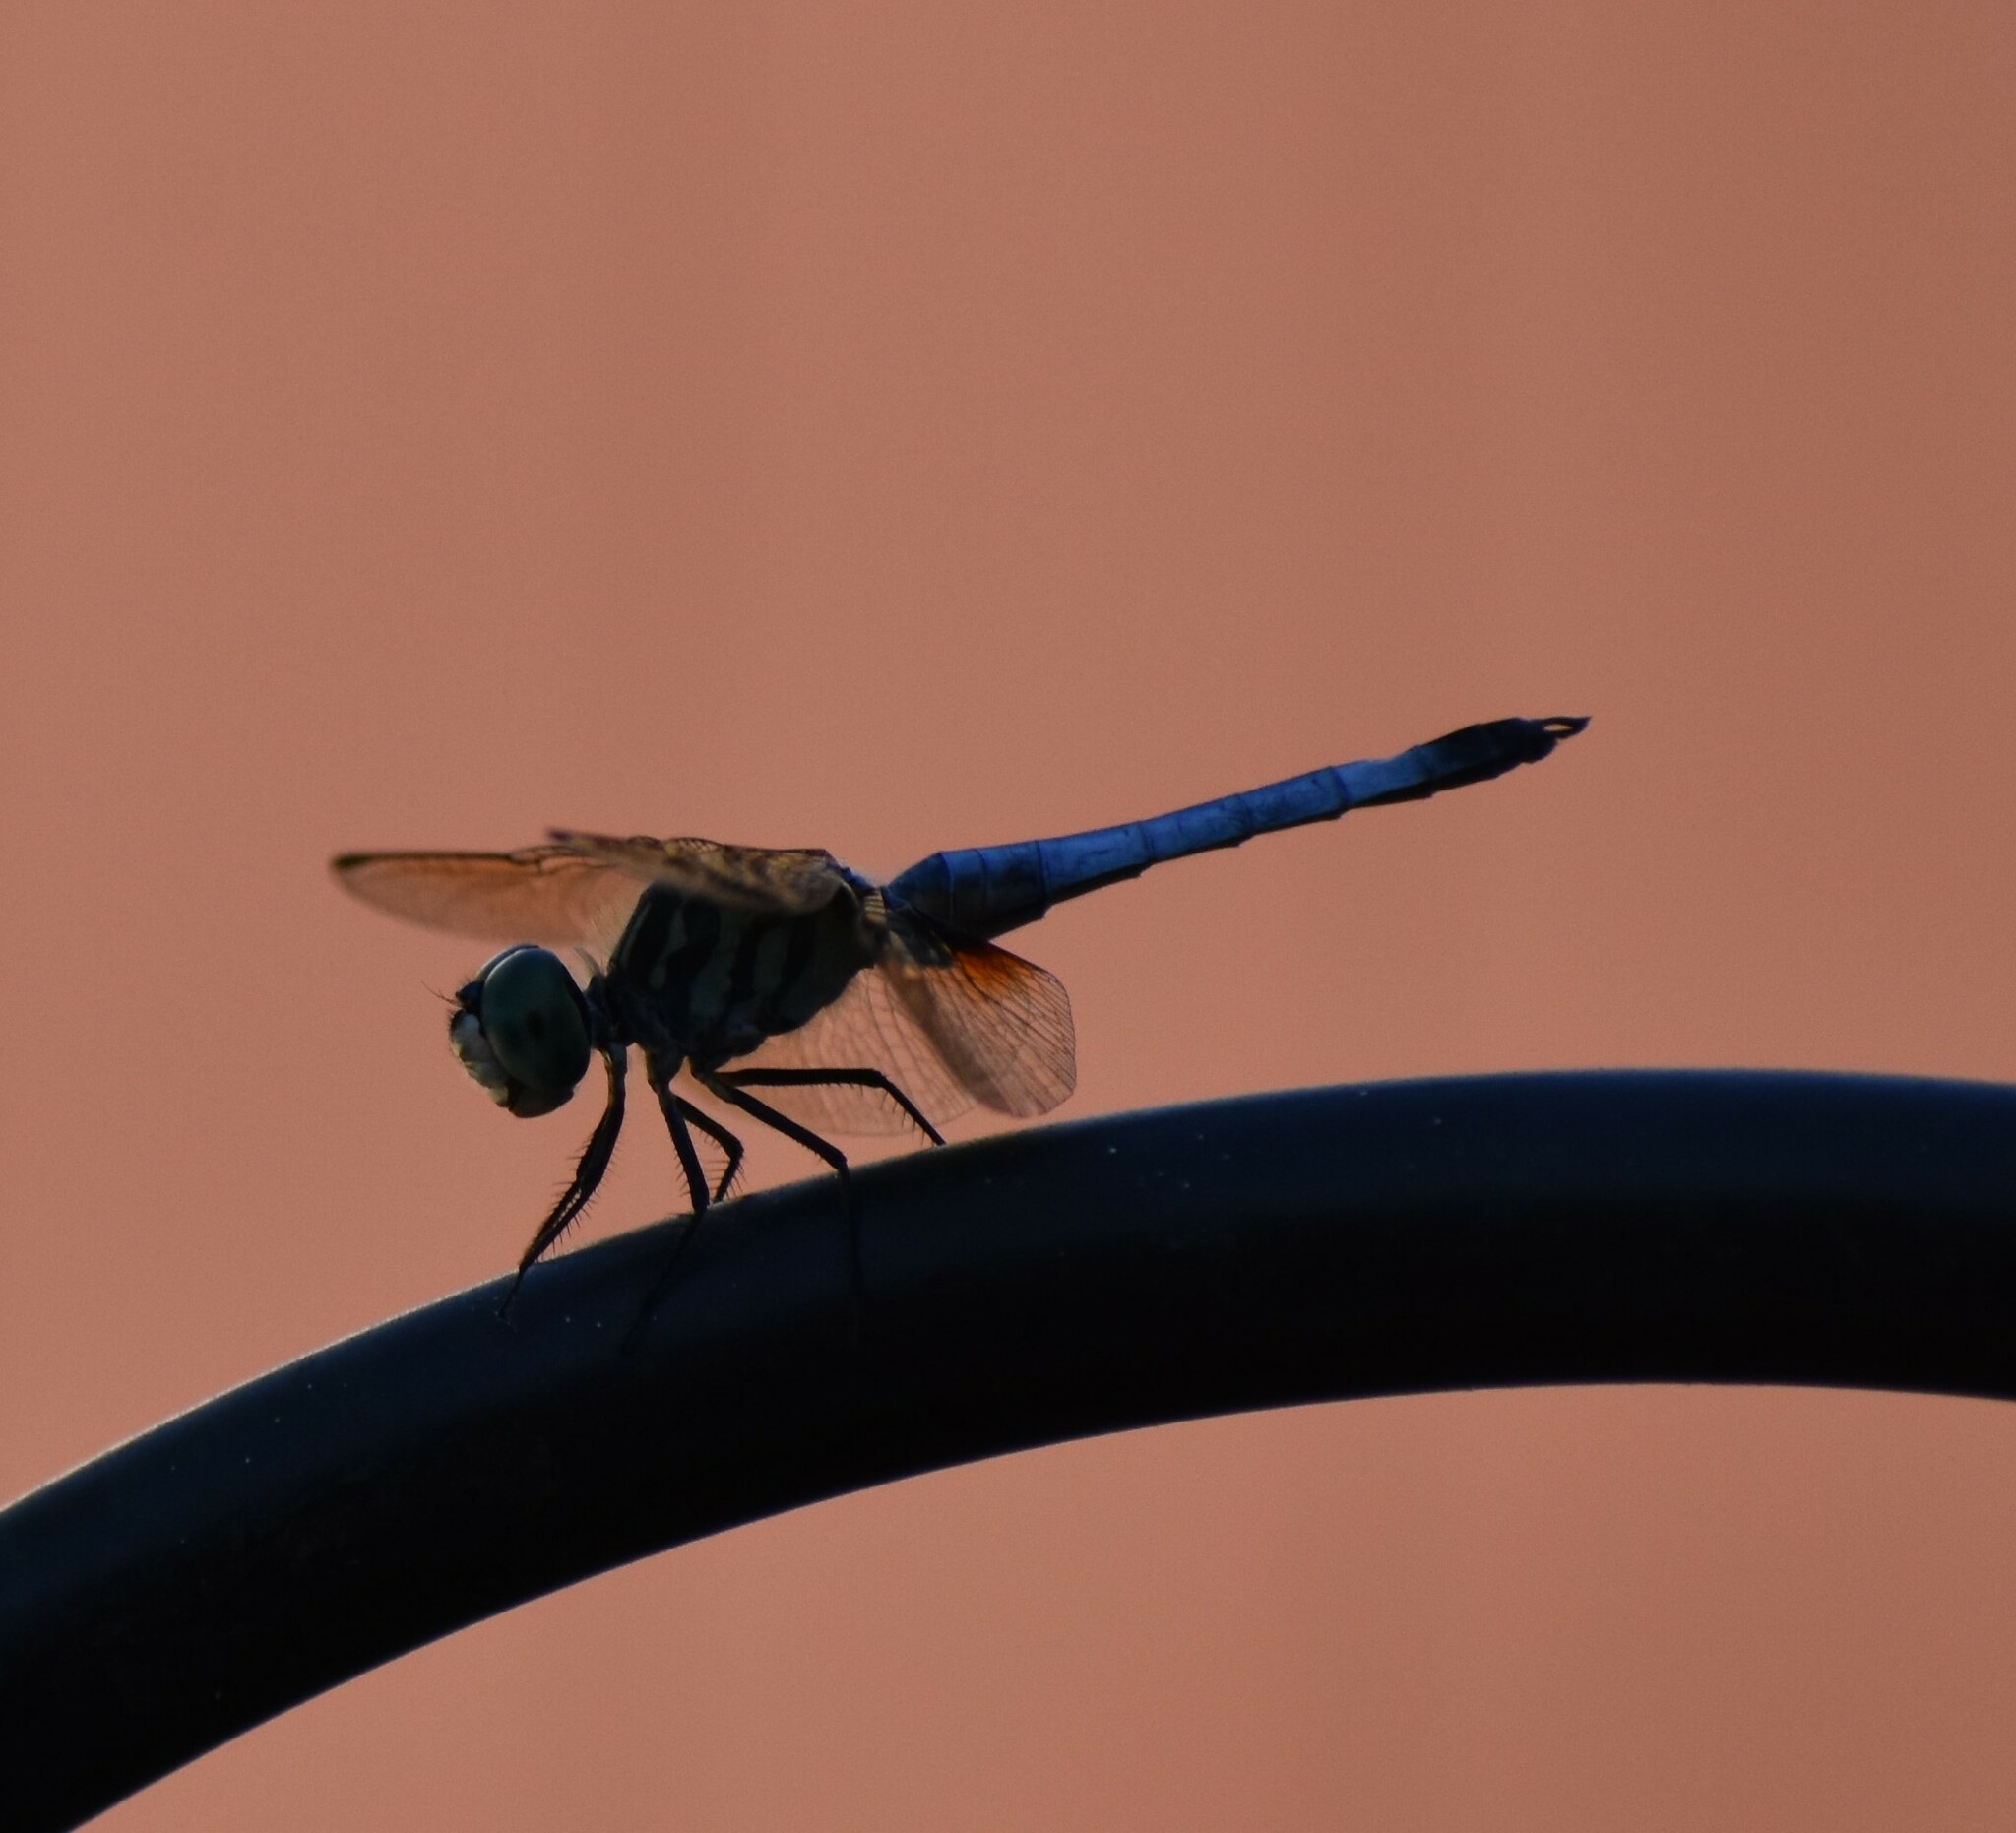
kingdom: Animalia
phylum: Arthropoda
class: Insecta
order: Odonata
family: Libellulidae
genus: Pachydiplax
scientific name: Pachydiplax longipennis
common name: Blue dasher
